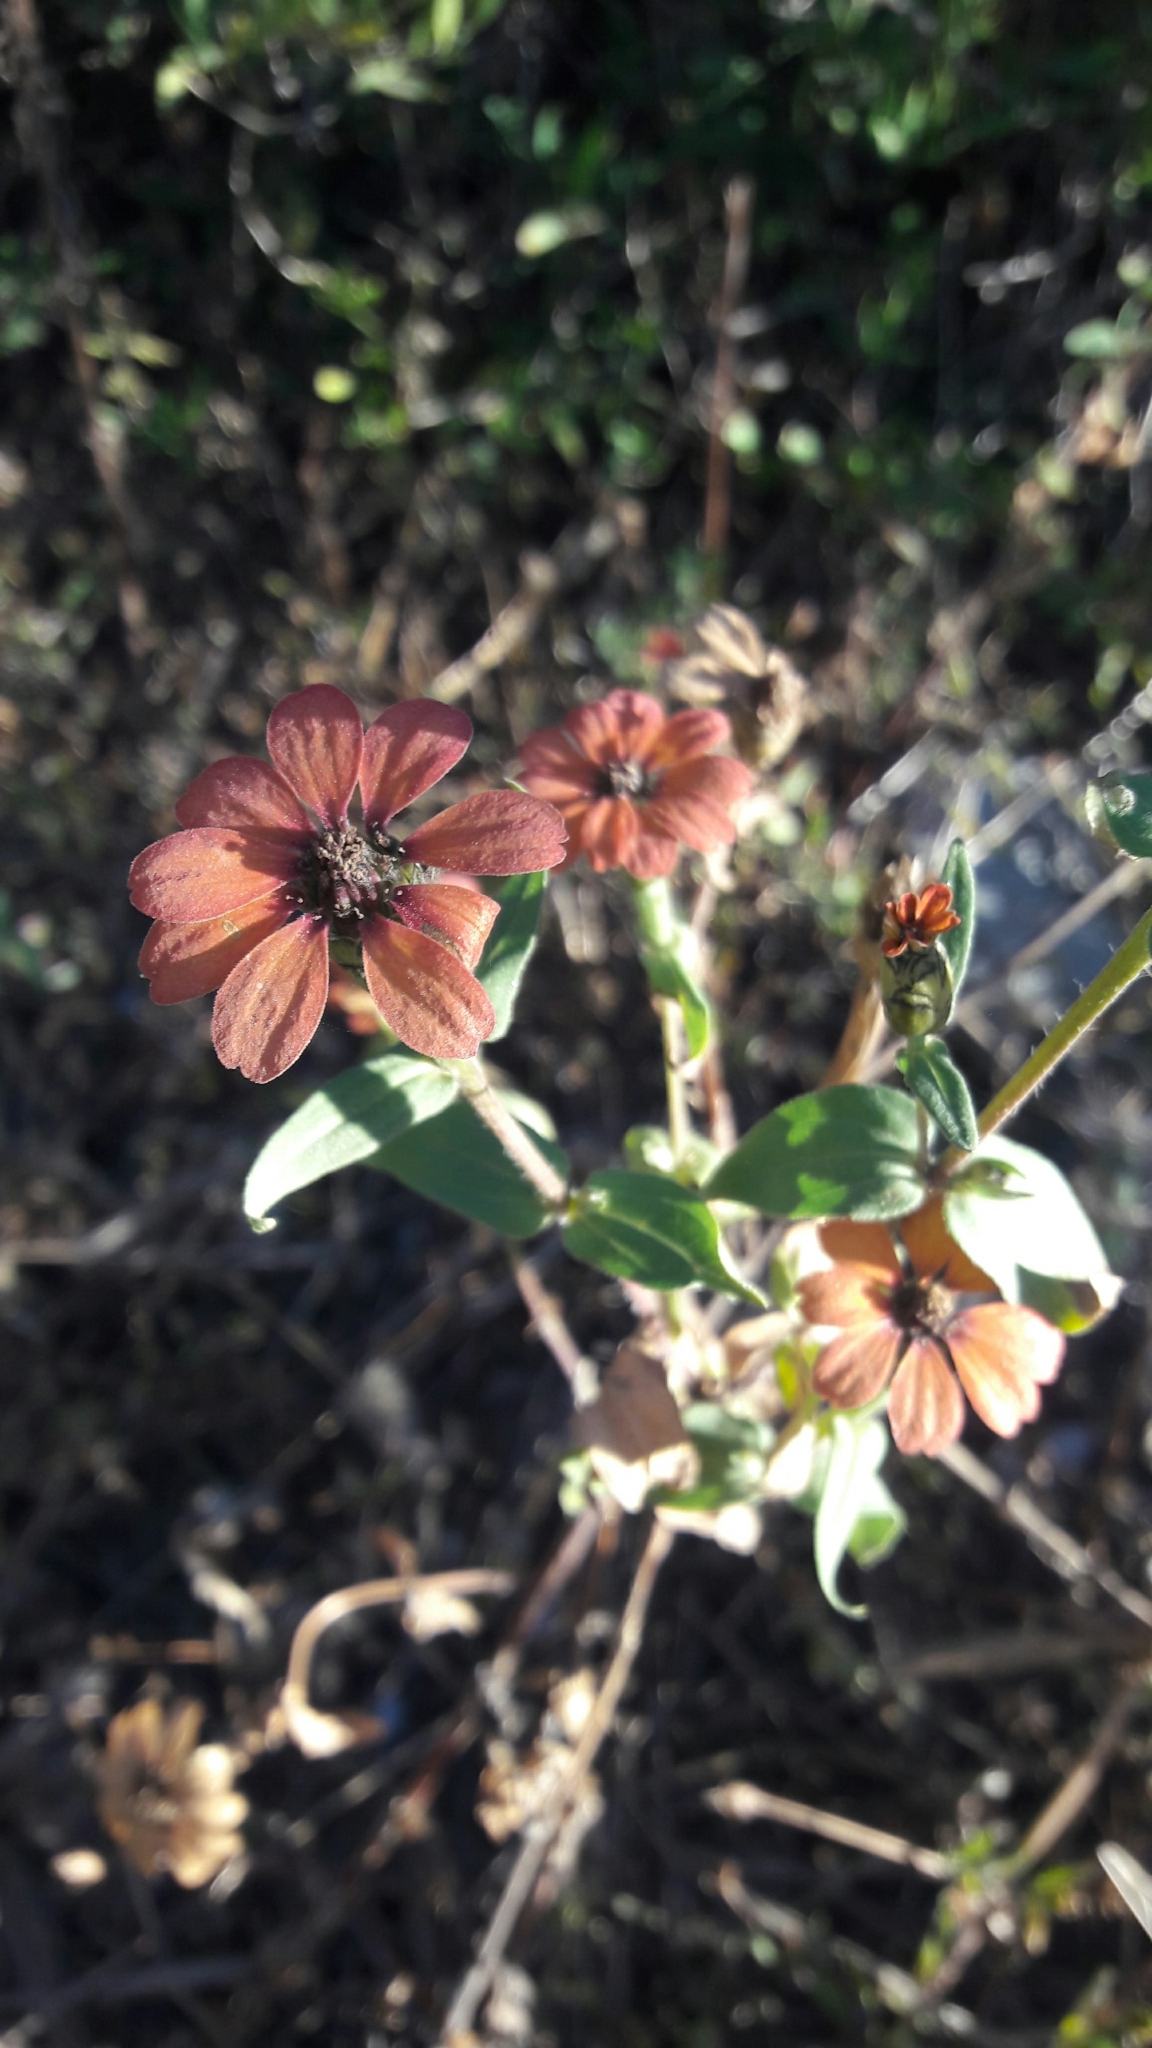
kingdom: Plantae
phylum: Tracheophyta
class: Magnoliopsida
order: Asterales
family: Asteraceae
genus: Zinnia
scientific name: Zinnia peruviana
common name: Peruvian zinnia
